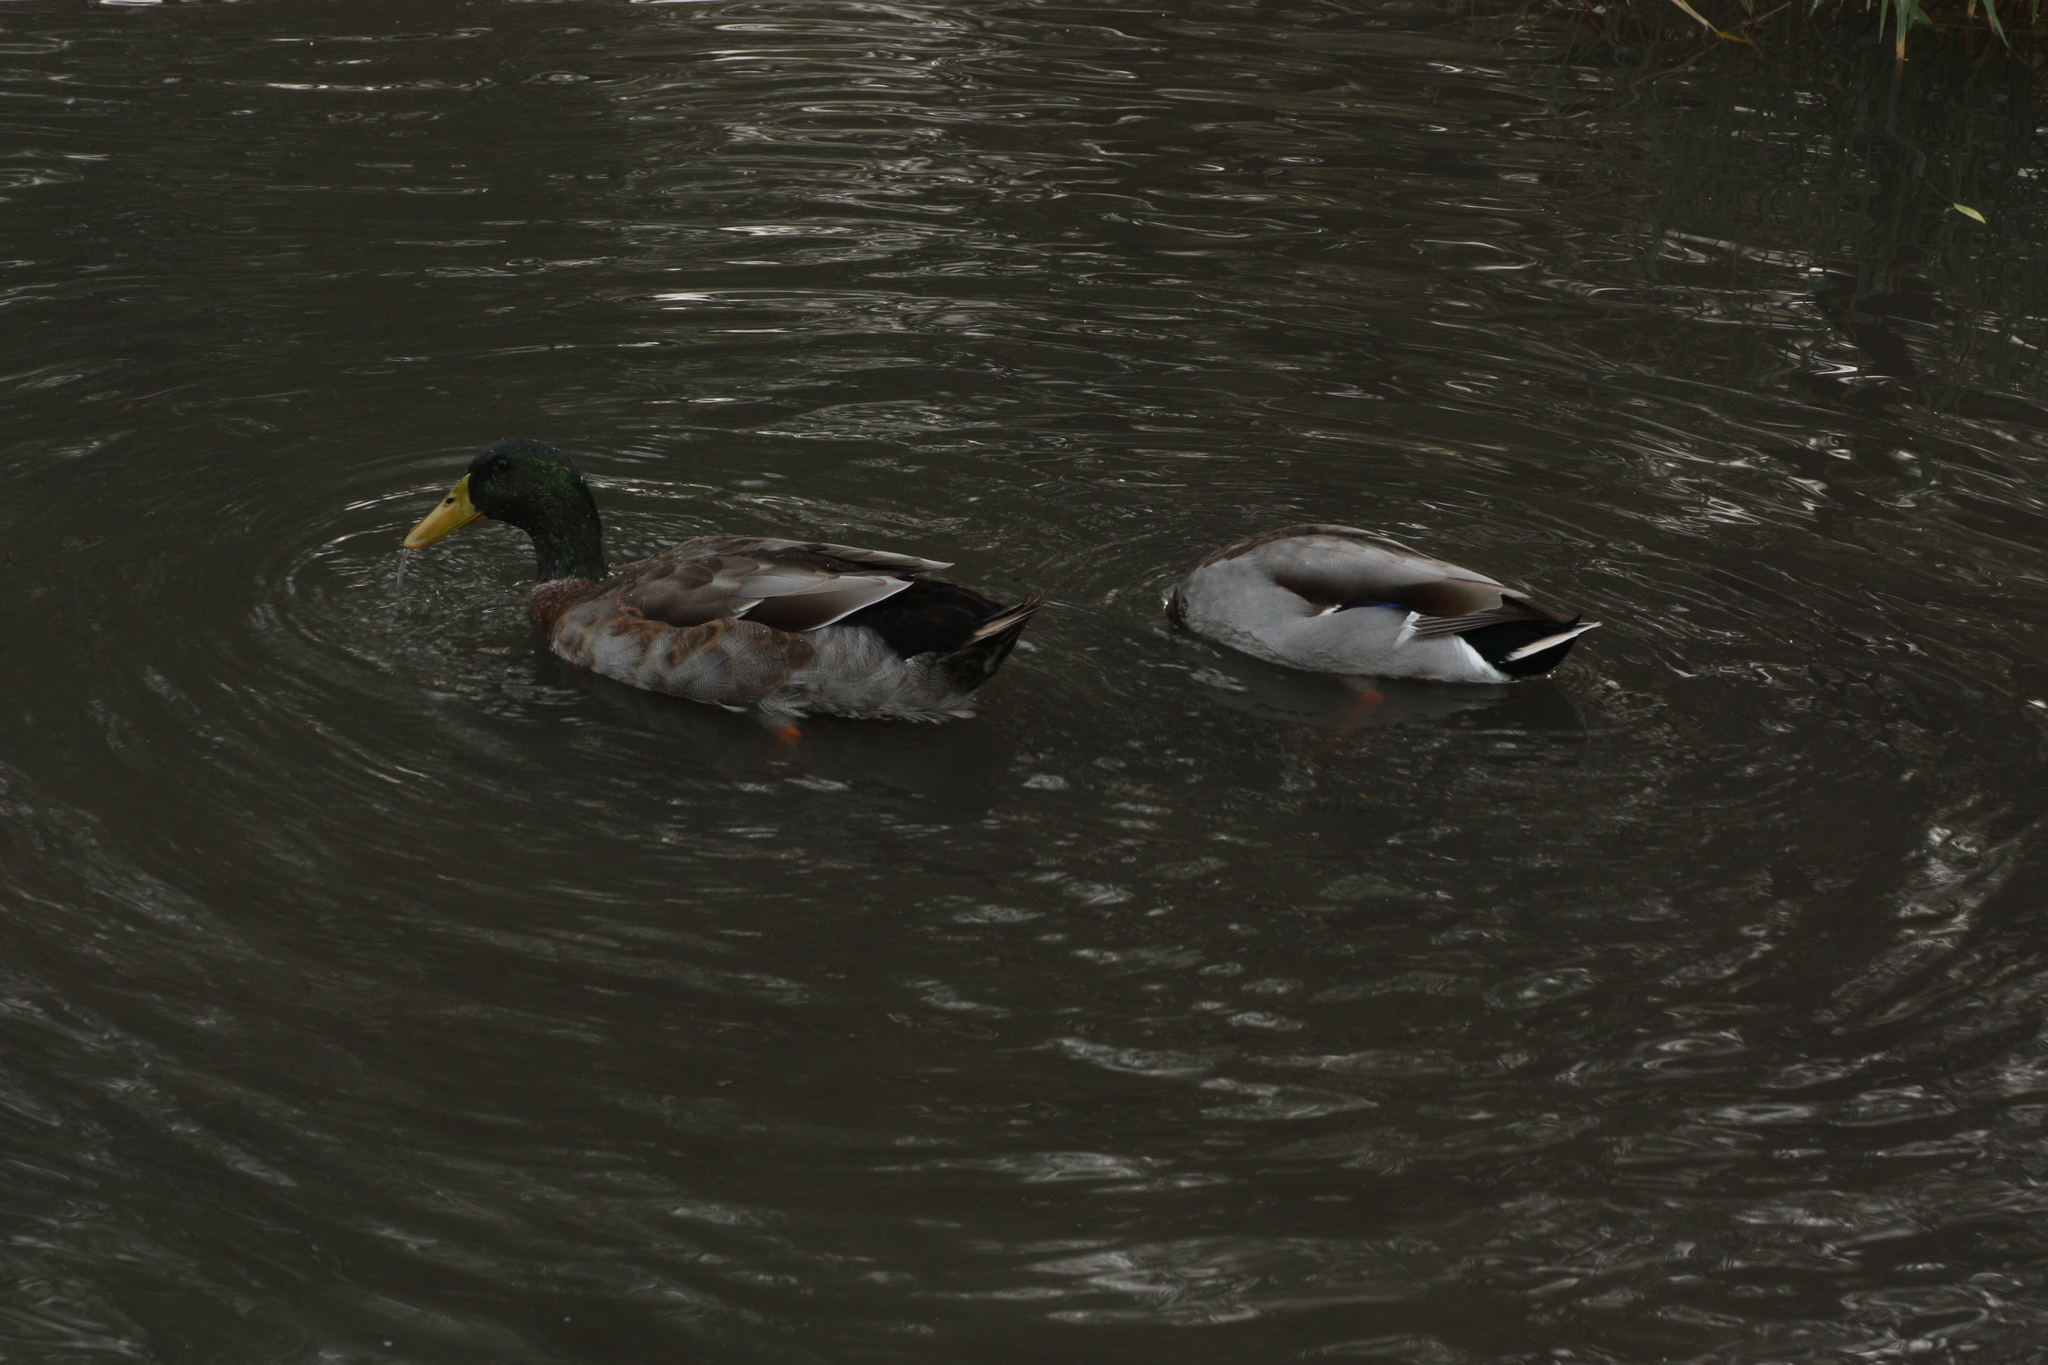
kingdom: Animalia
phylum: Chordata
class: Aves
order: Anseriformes
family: Anatidae
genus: Anas
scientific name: Anas platyrhynchos
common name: Mallard
